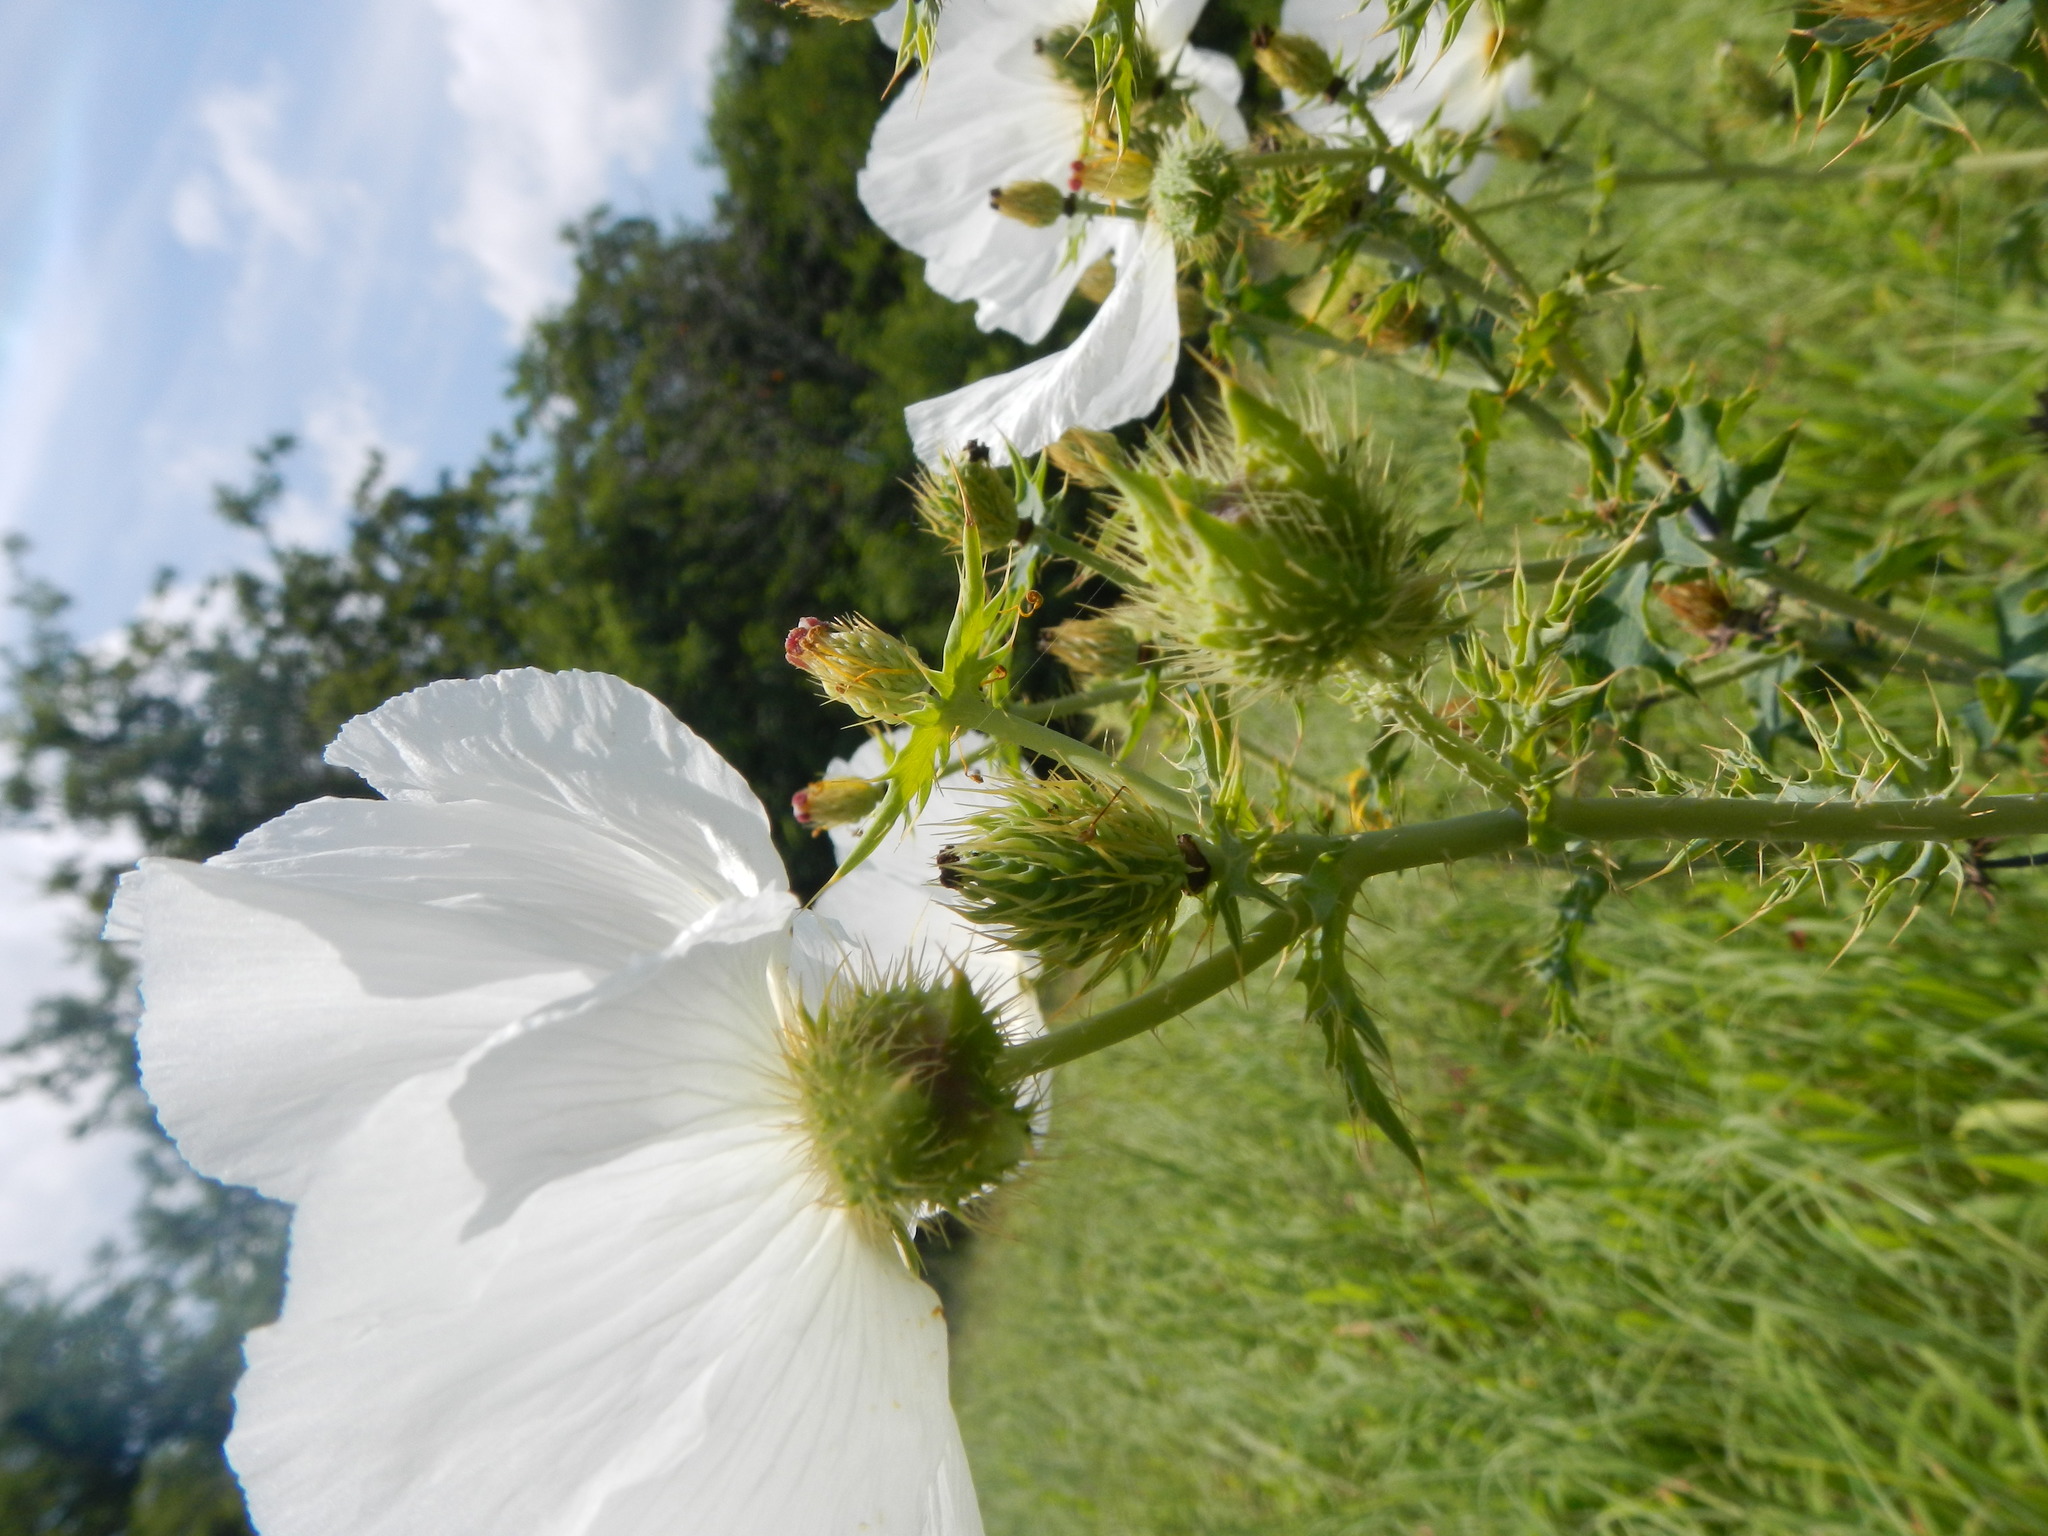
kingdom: Plantae
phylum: Tracheophyta
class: Magnoliopsida
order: Ranunculales
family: Papaveraceae
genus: Argemone
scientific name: Argemone albiflora
